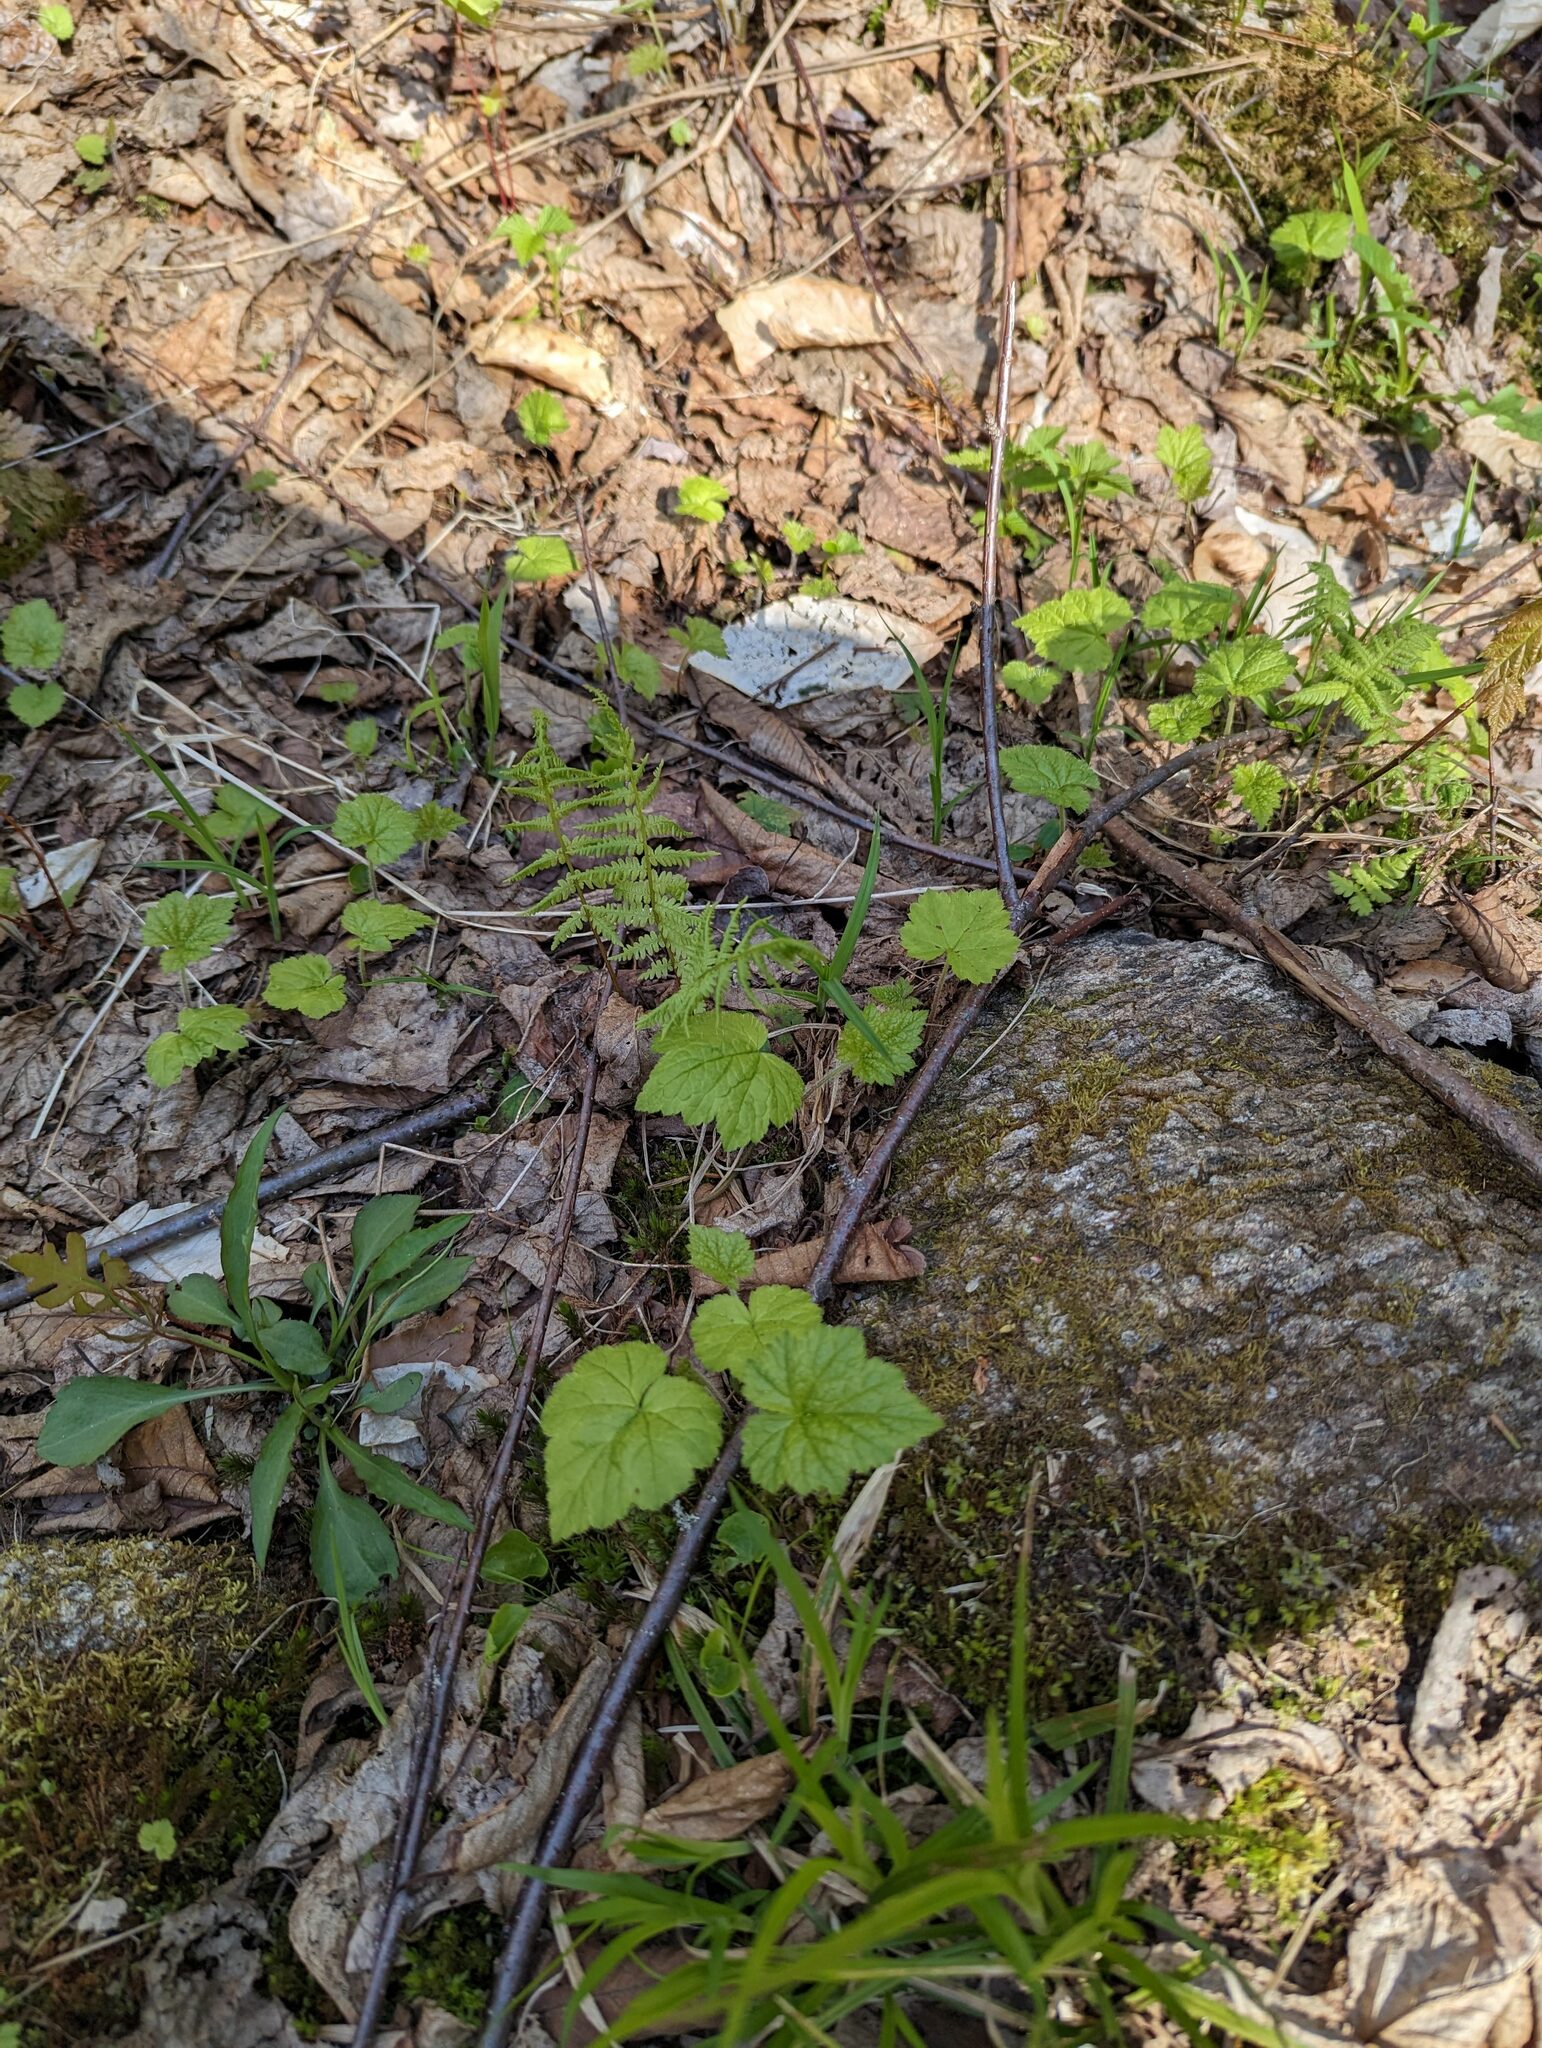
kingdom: Plantae
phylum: Tracheophyta
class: Magnoliopsida
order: Saxifragales
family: Saxifragaceae
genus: Tiarella
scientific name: Tiarella stolonifera
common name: Stoloniferous foamflower
